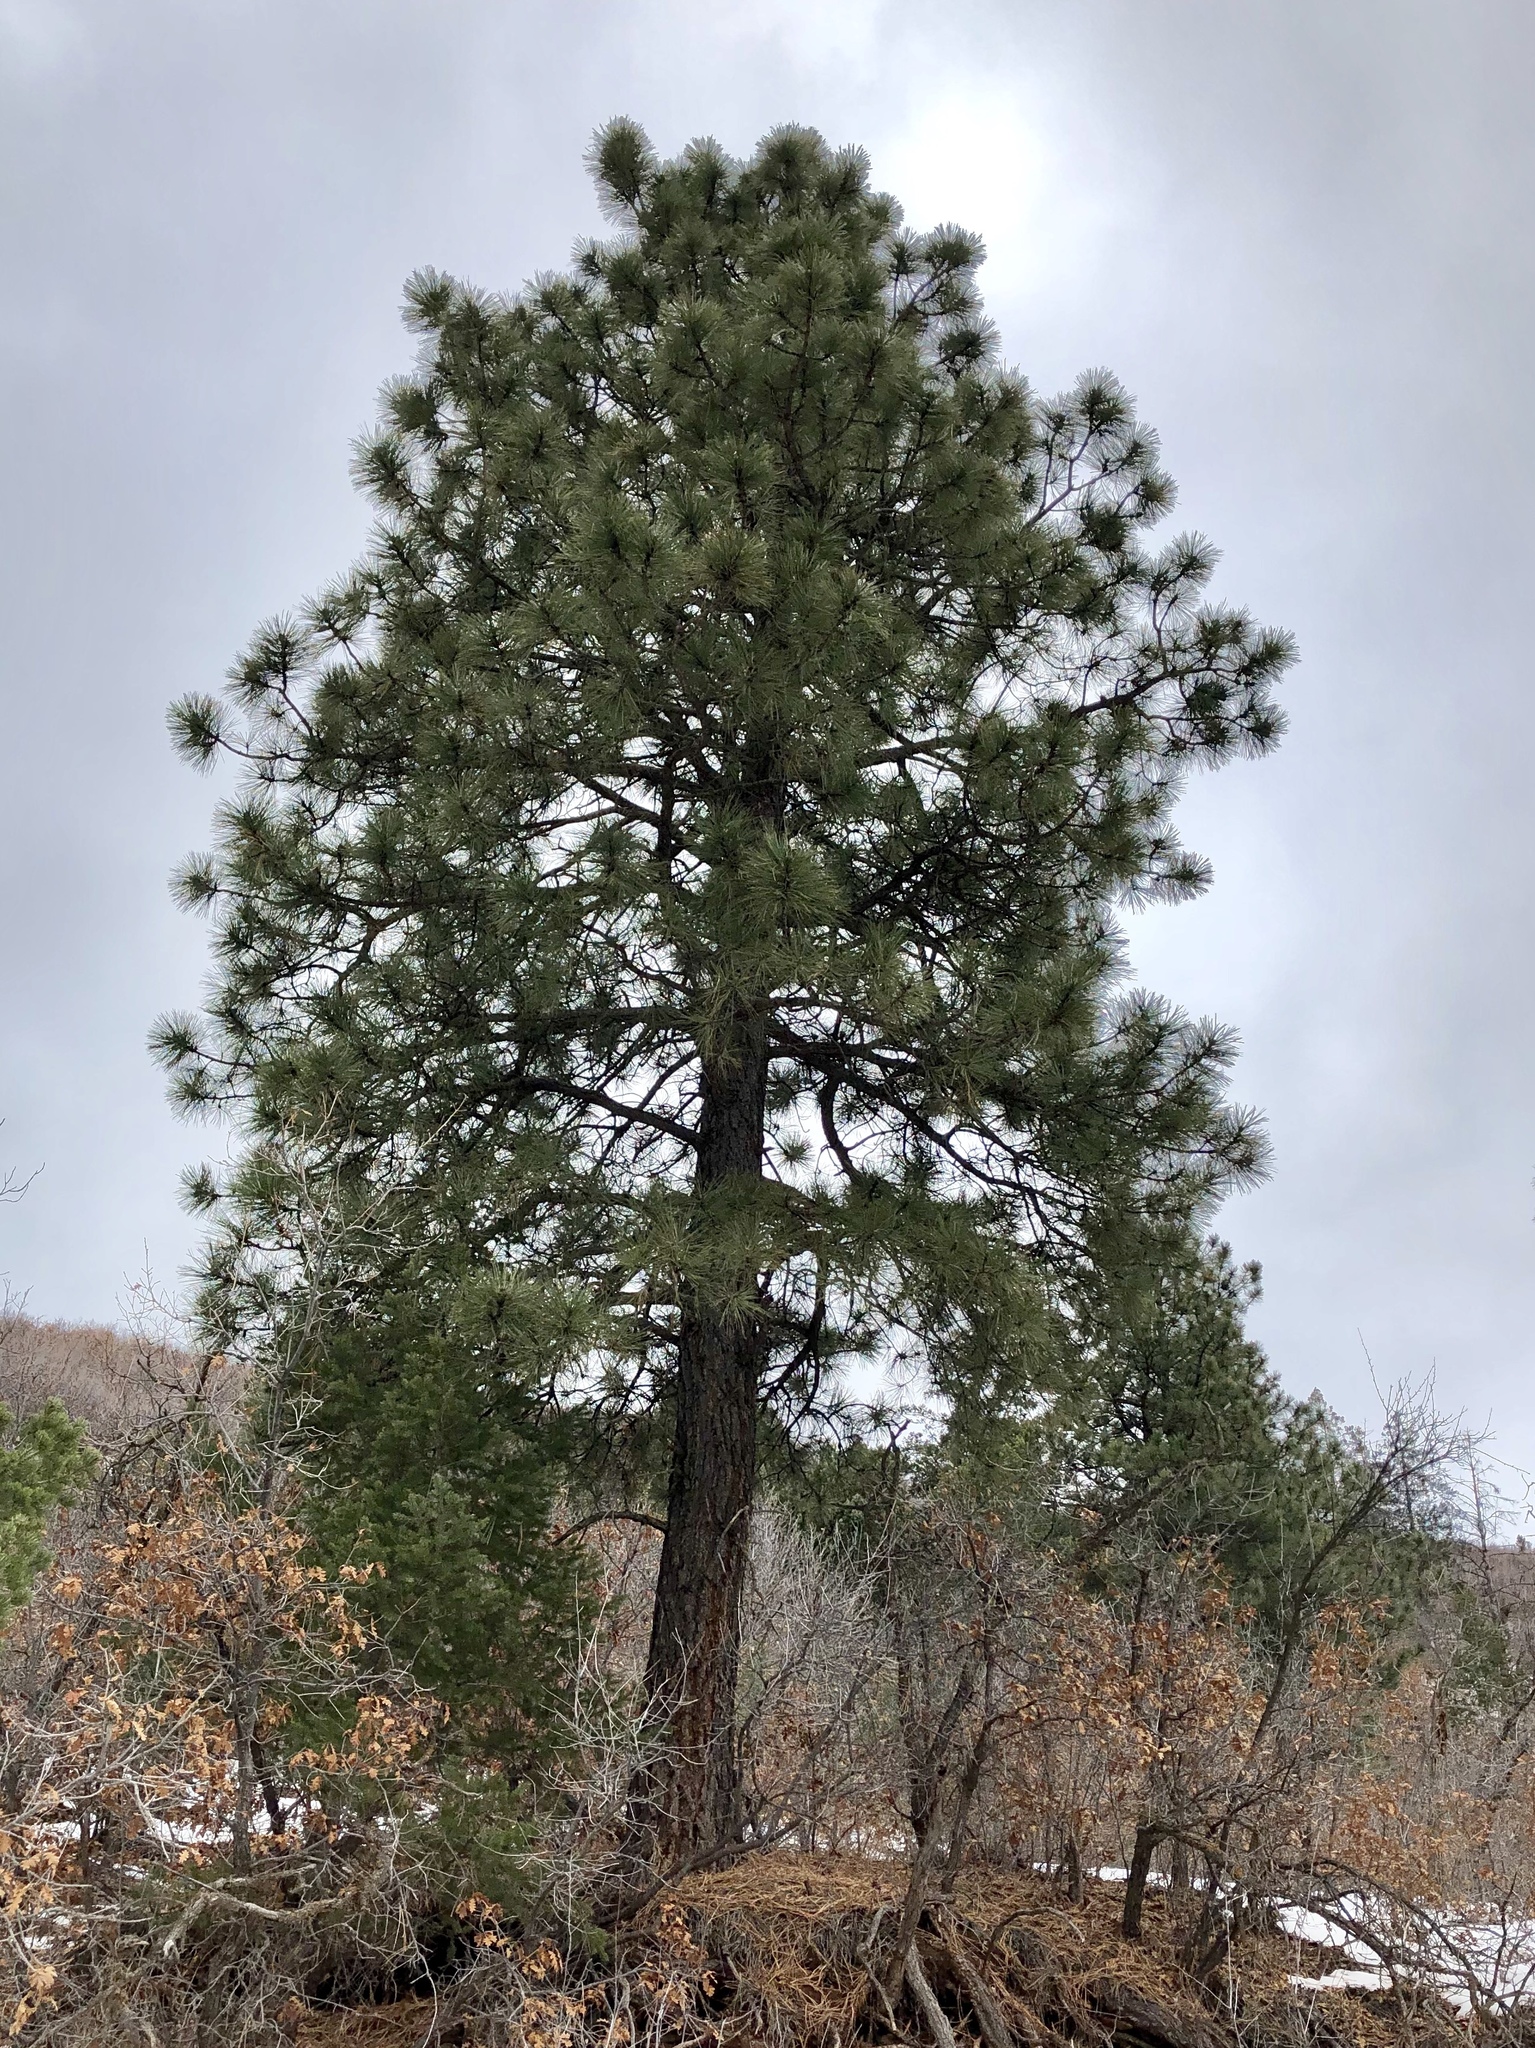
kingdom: Plantae
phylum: Tracheophyta
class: Pinopsida
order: Pinales
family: Pinaceae
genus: Pinus
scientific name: Pinus ponderosa
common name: Western yellow-pine
